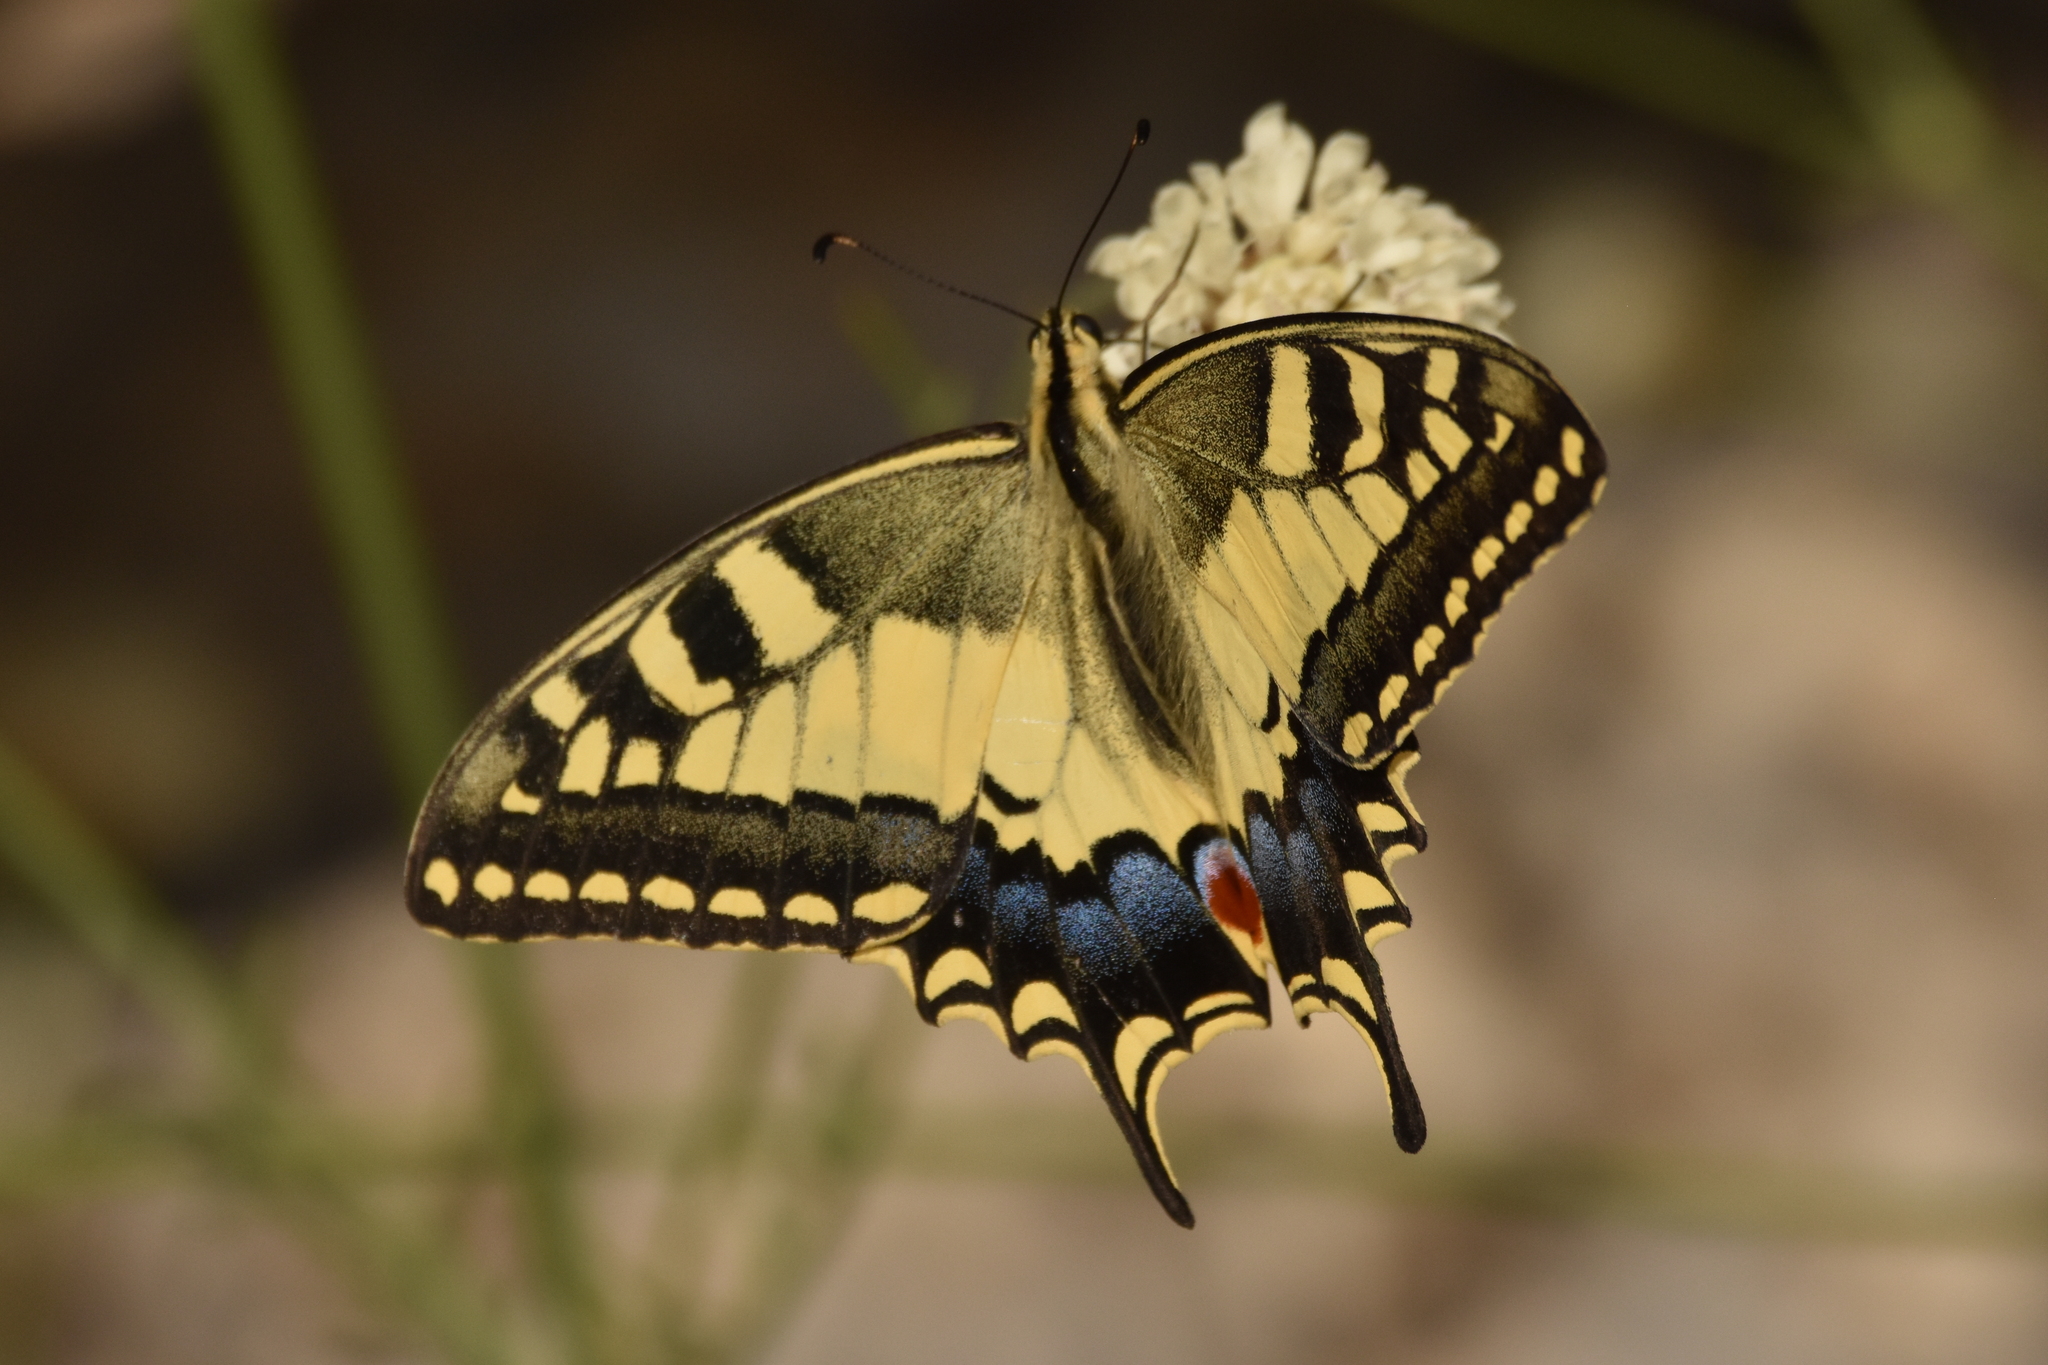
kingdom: Animalia
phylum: Arthropoda
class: Insecta
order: Lepidoptera
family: Papilionidae
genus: Papilio
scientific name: Papilio machaon
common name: Swallowtail
